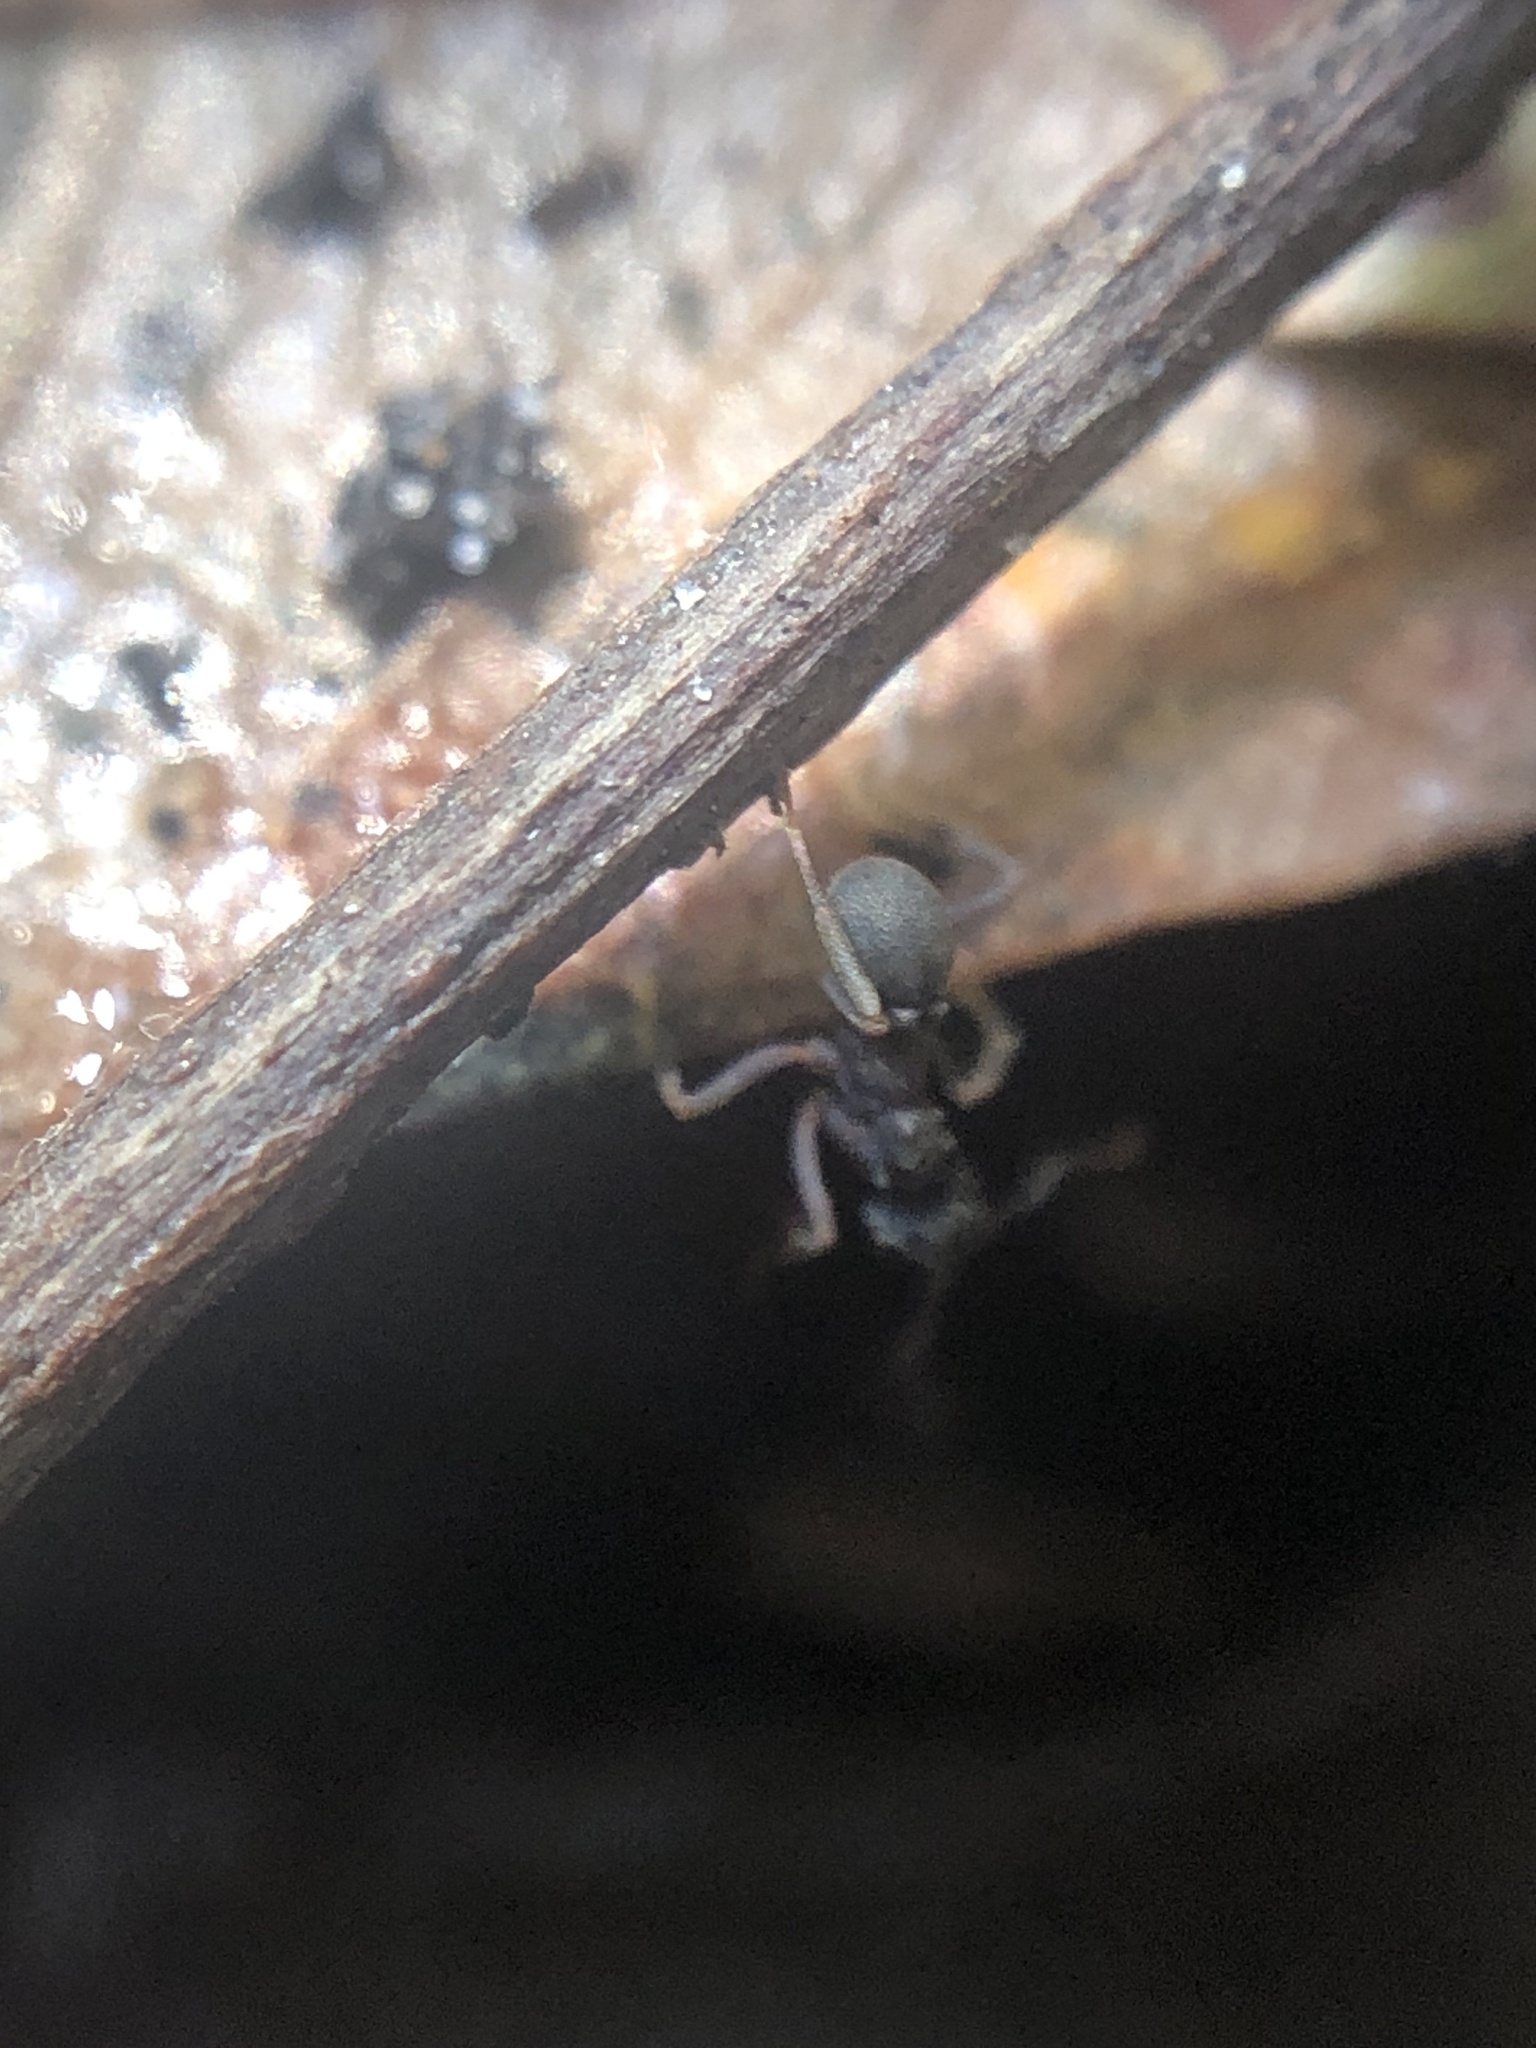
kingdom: Animalia
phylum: Arthropoda
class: Insecta
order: Hymenoptera
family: Formicidae
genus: Cyphomyrmex
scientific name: Cyphomyrmex rimosus
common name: Rimose fungus ant
